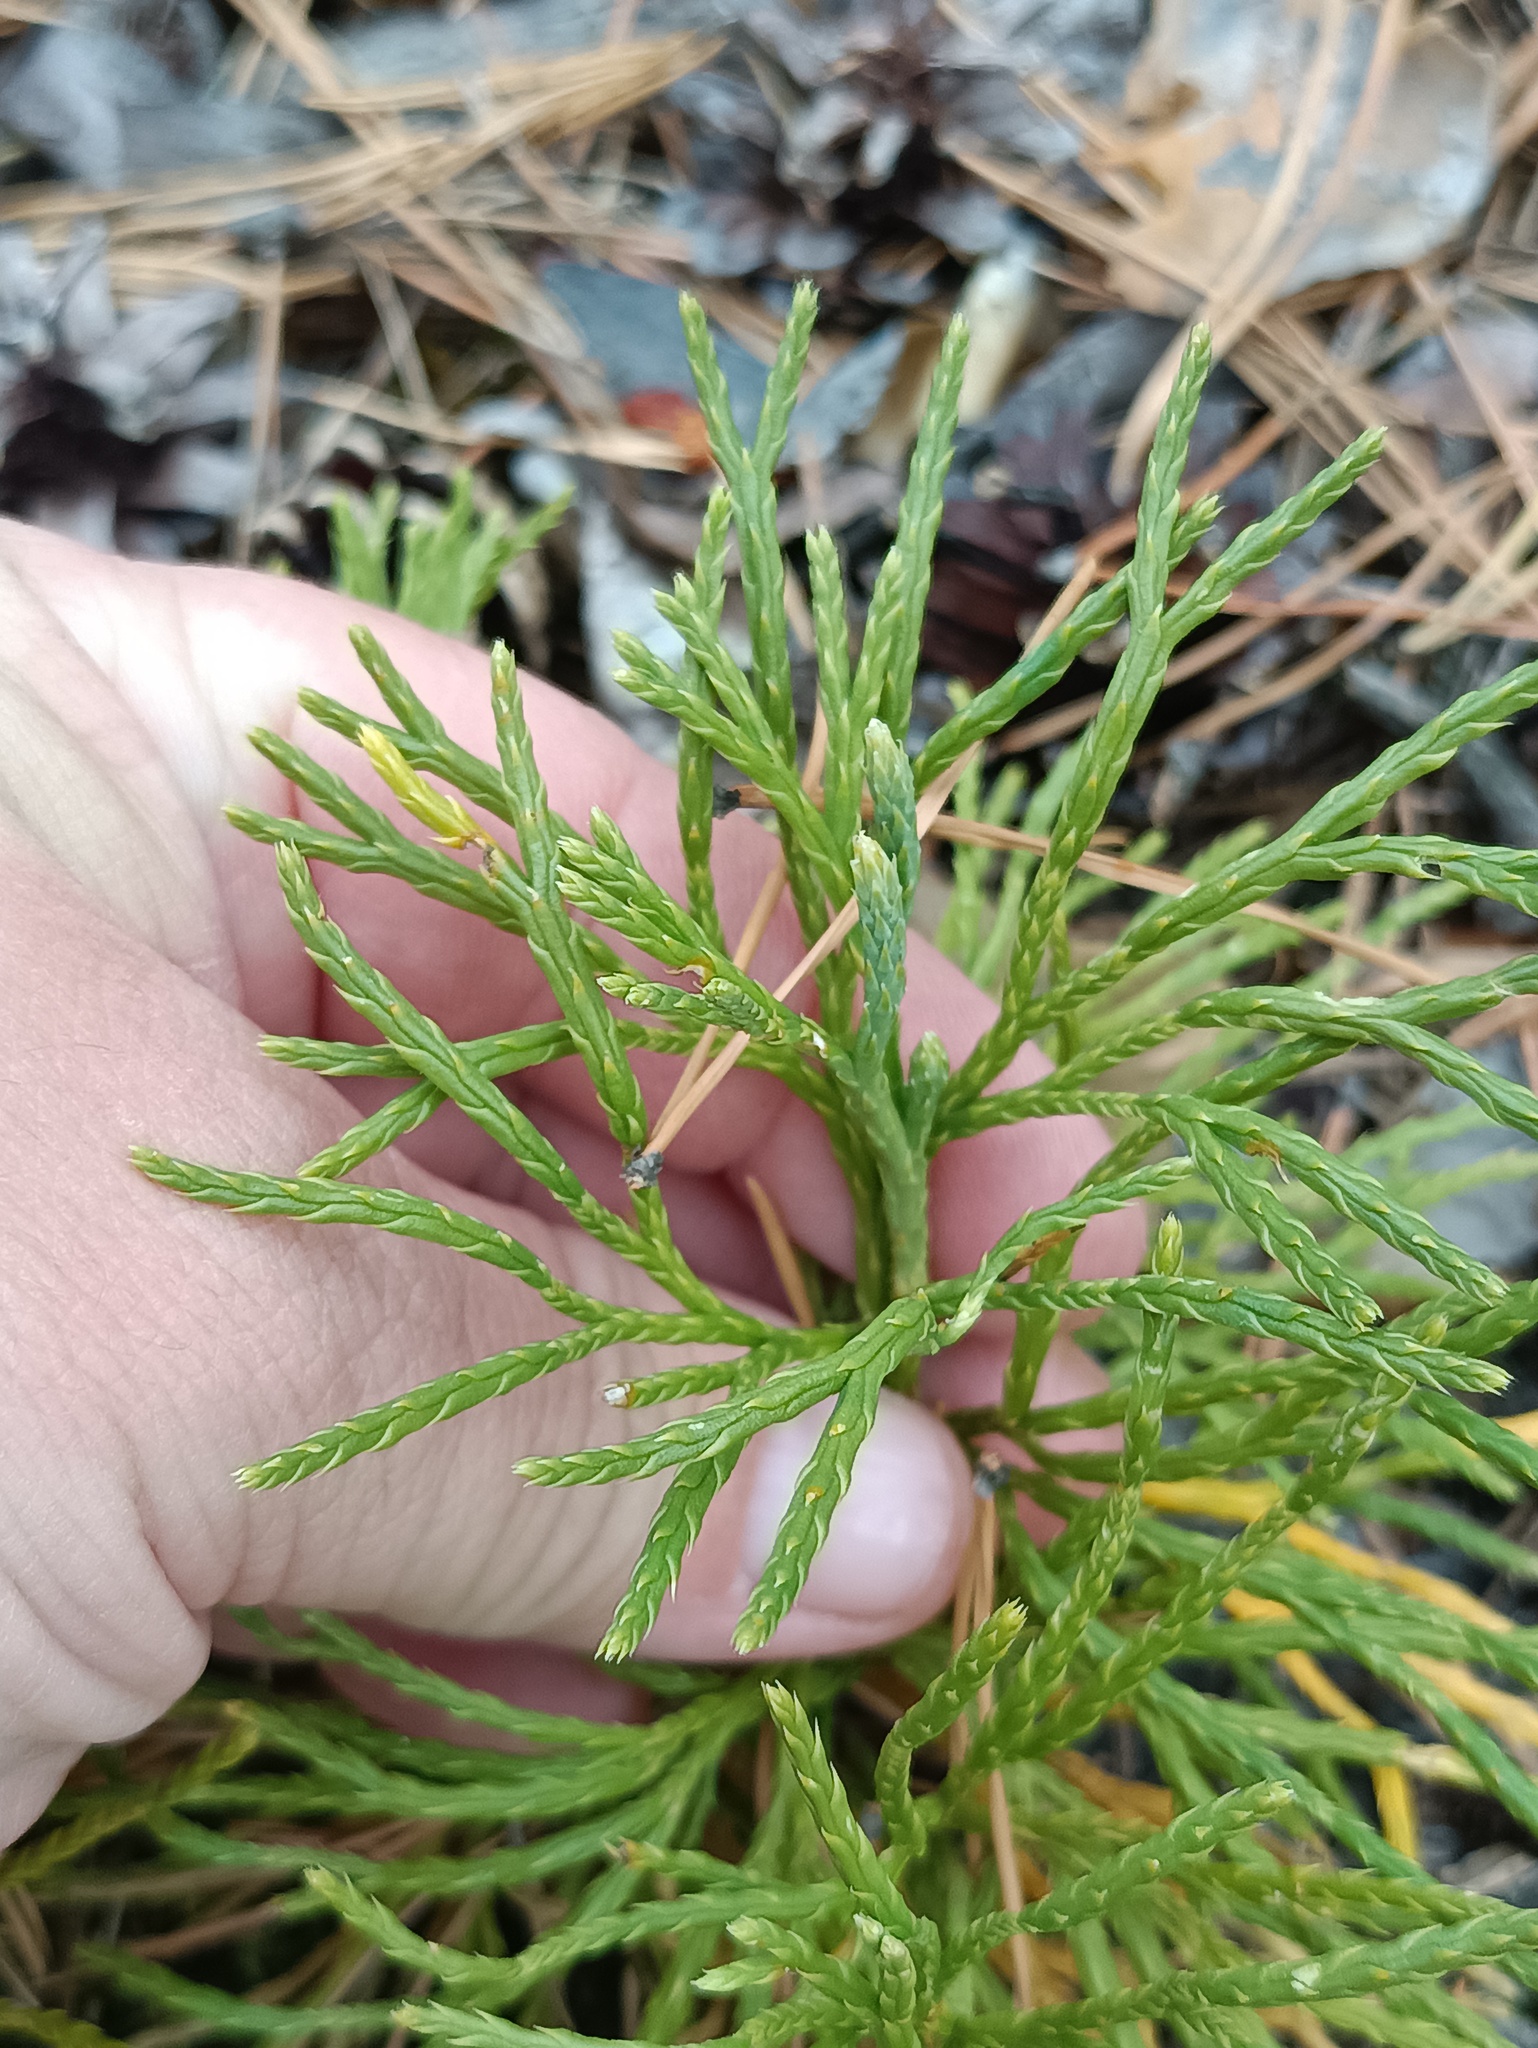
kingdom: Plantae
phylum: Tracheophyta
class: Lycopodiopsida
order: Lycopodiales
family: Lycopodiaceae
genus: Diphasiastrum
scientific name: Diphasiastrum complanatum
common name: Northern running-pine
